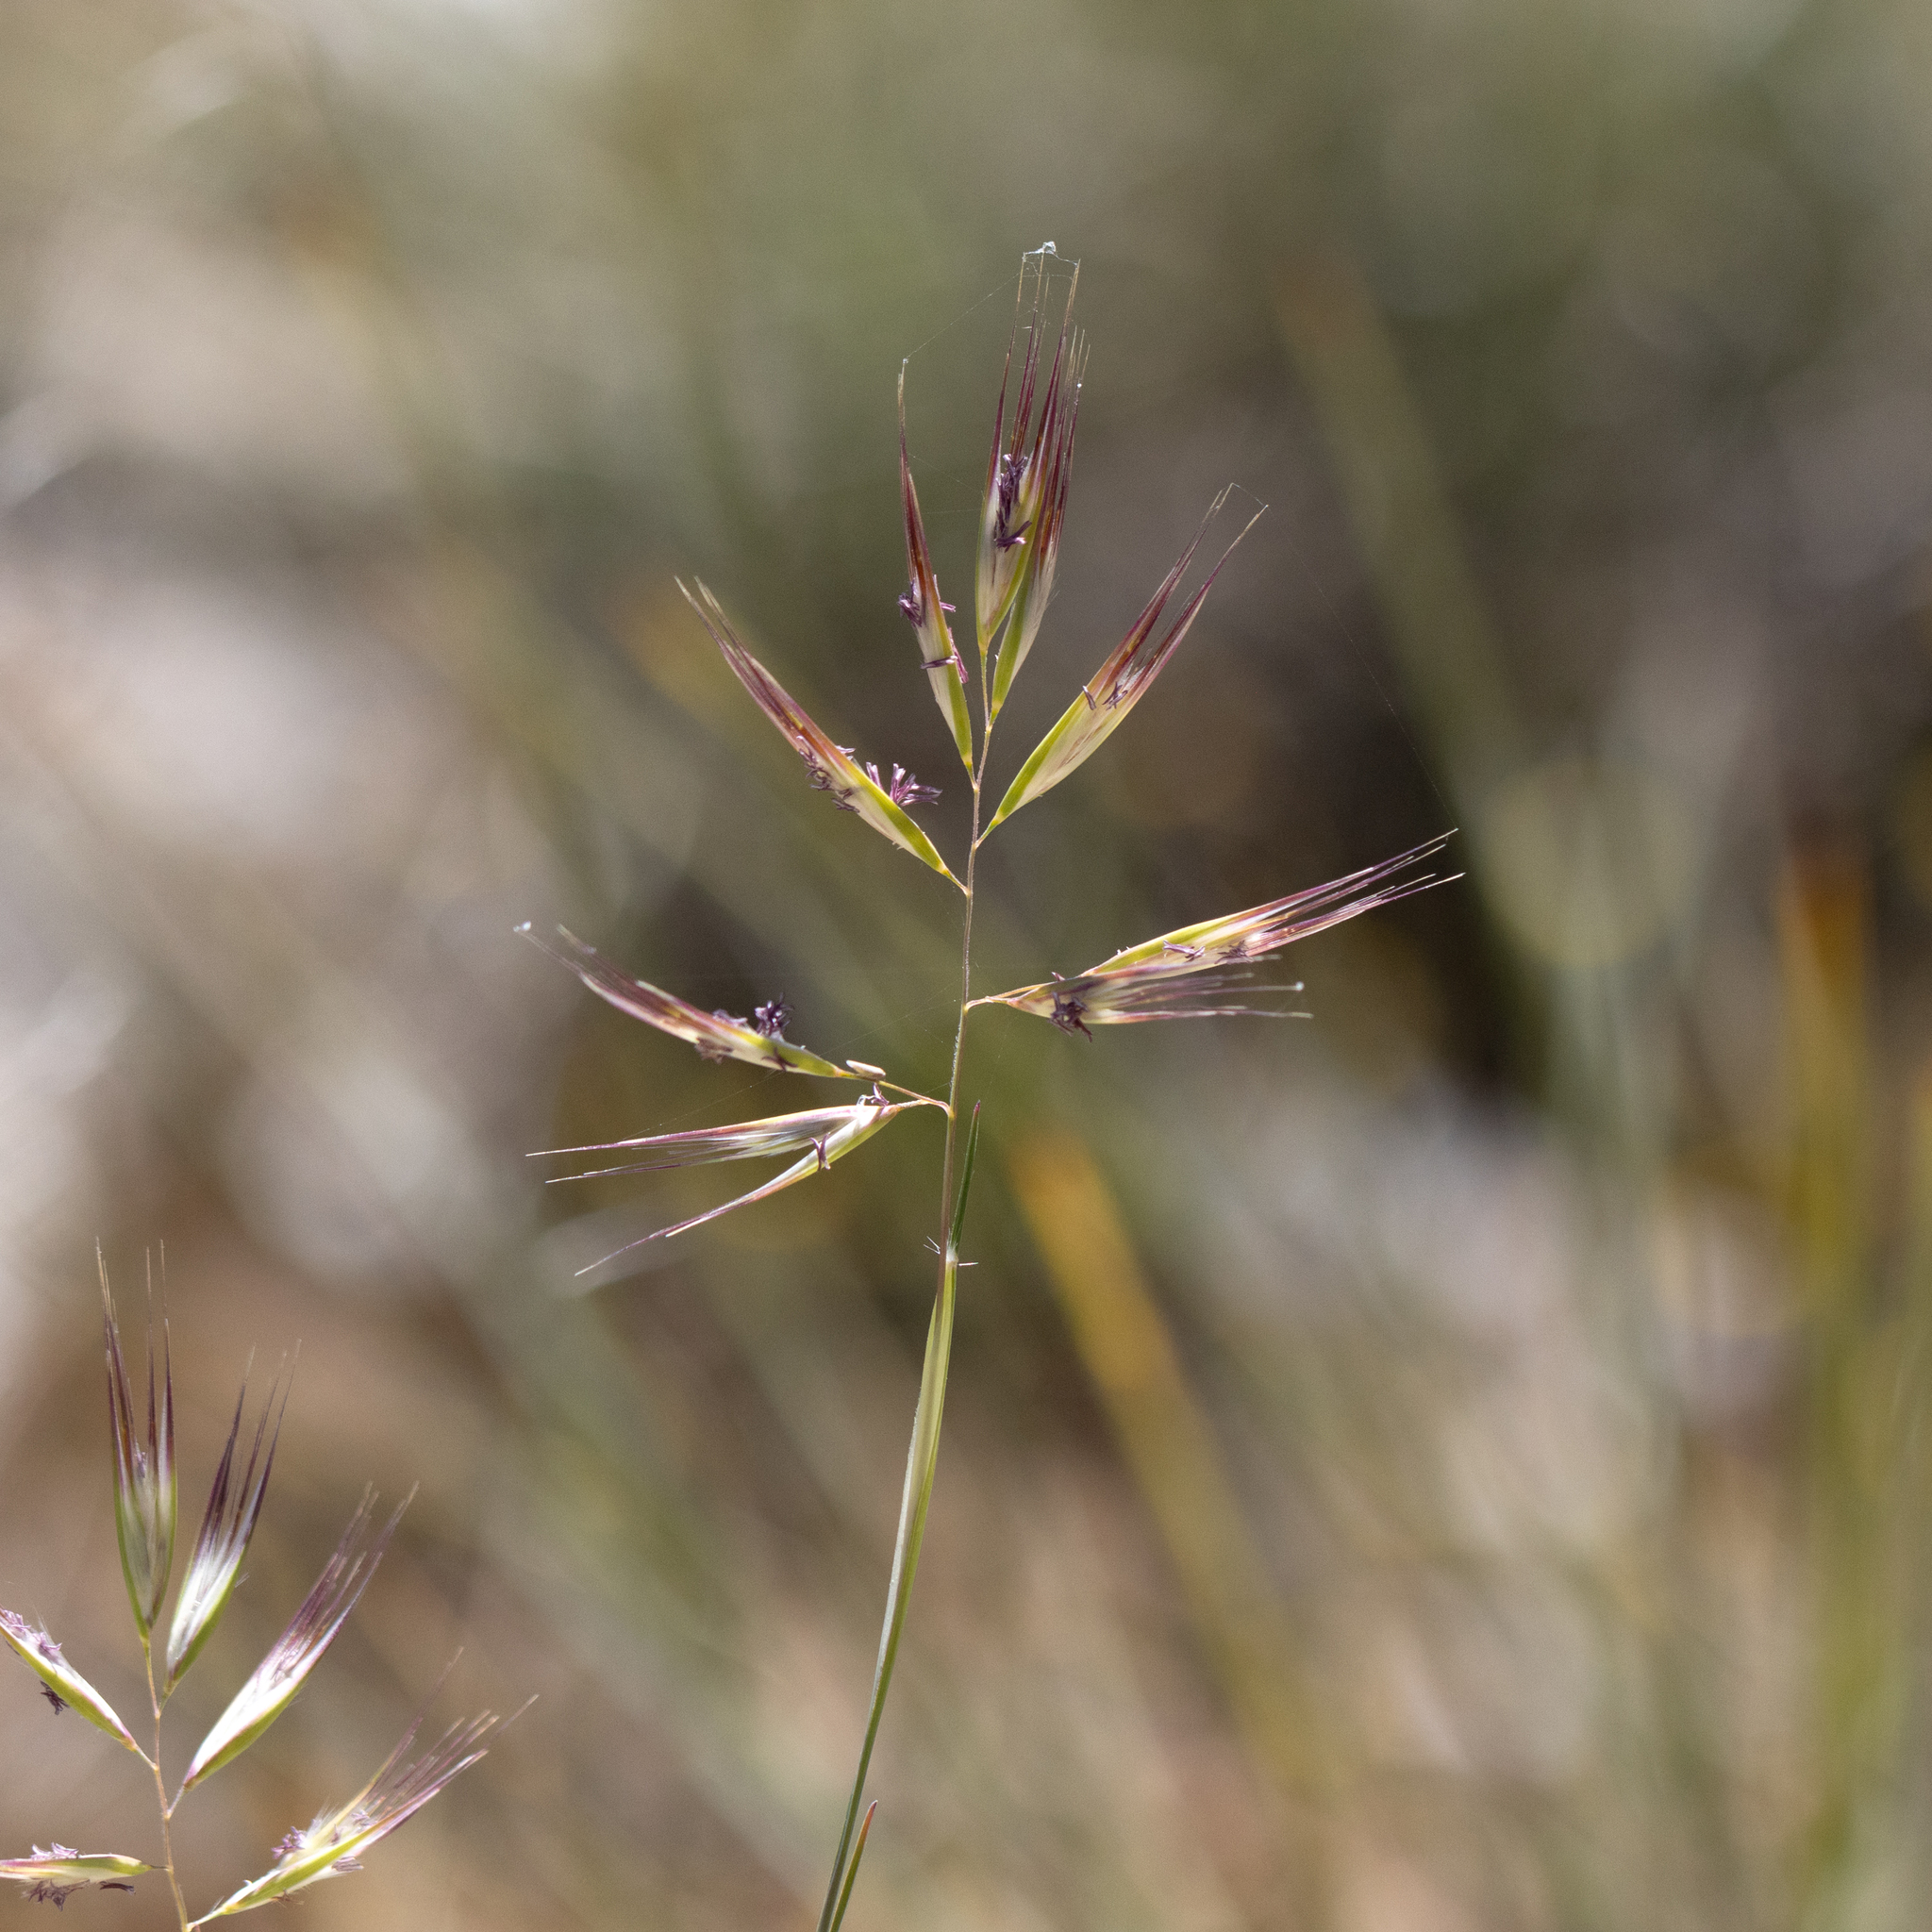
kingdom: Plantae
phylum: Tracheophyta
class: Liliopsida
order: Poales
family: Poaceae
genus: Rytidosperma
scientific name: Rytidosperma caespitosum
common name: Tufted wallaby grass
